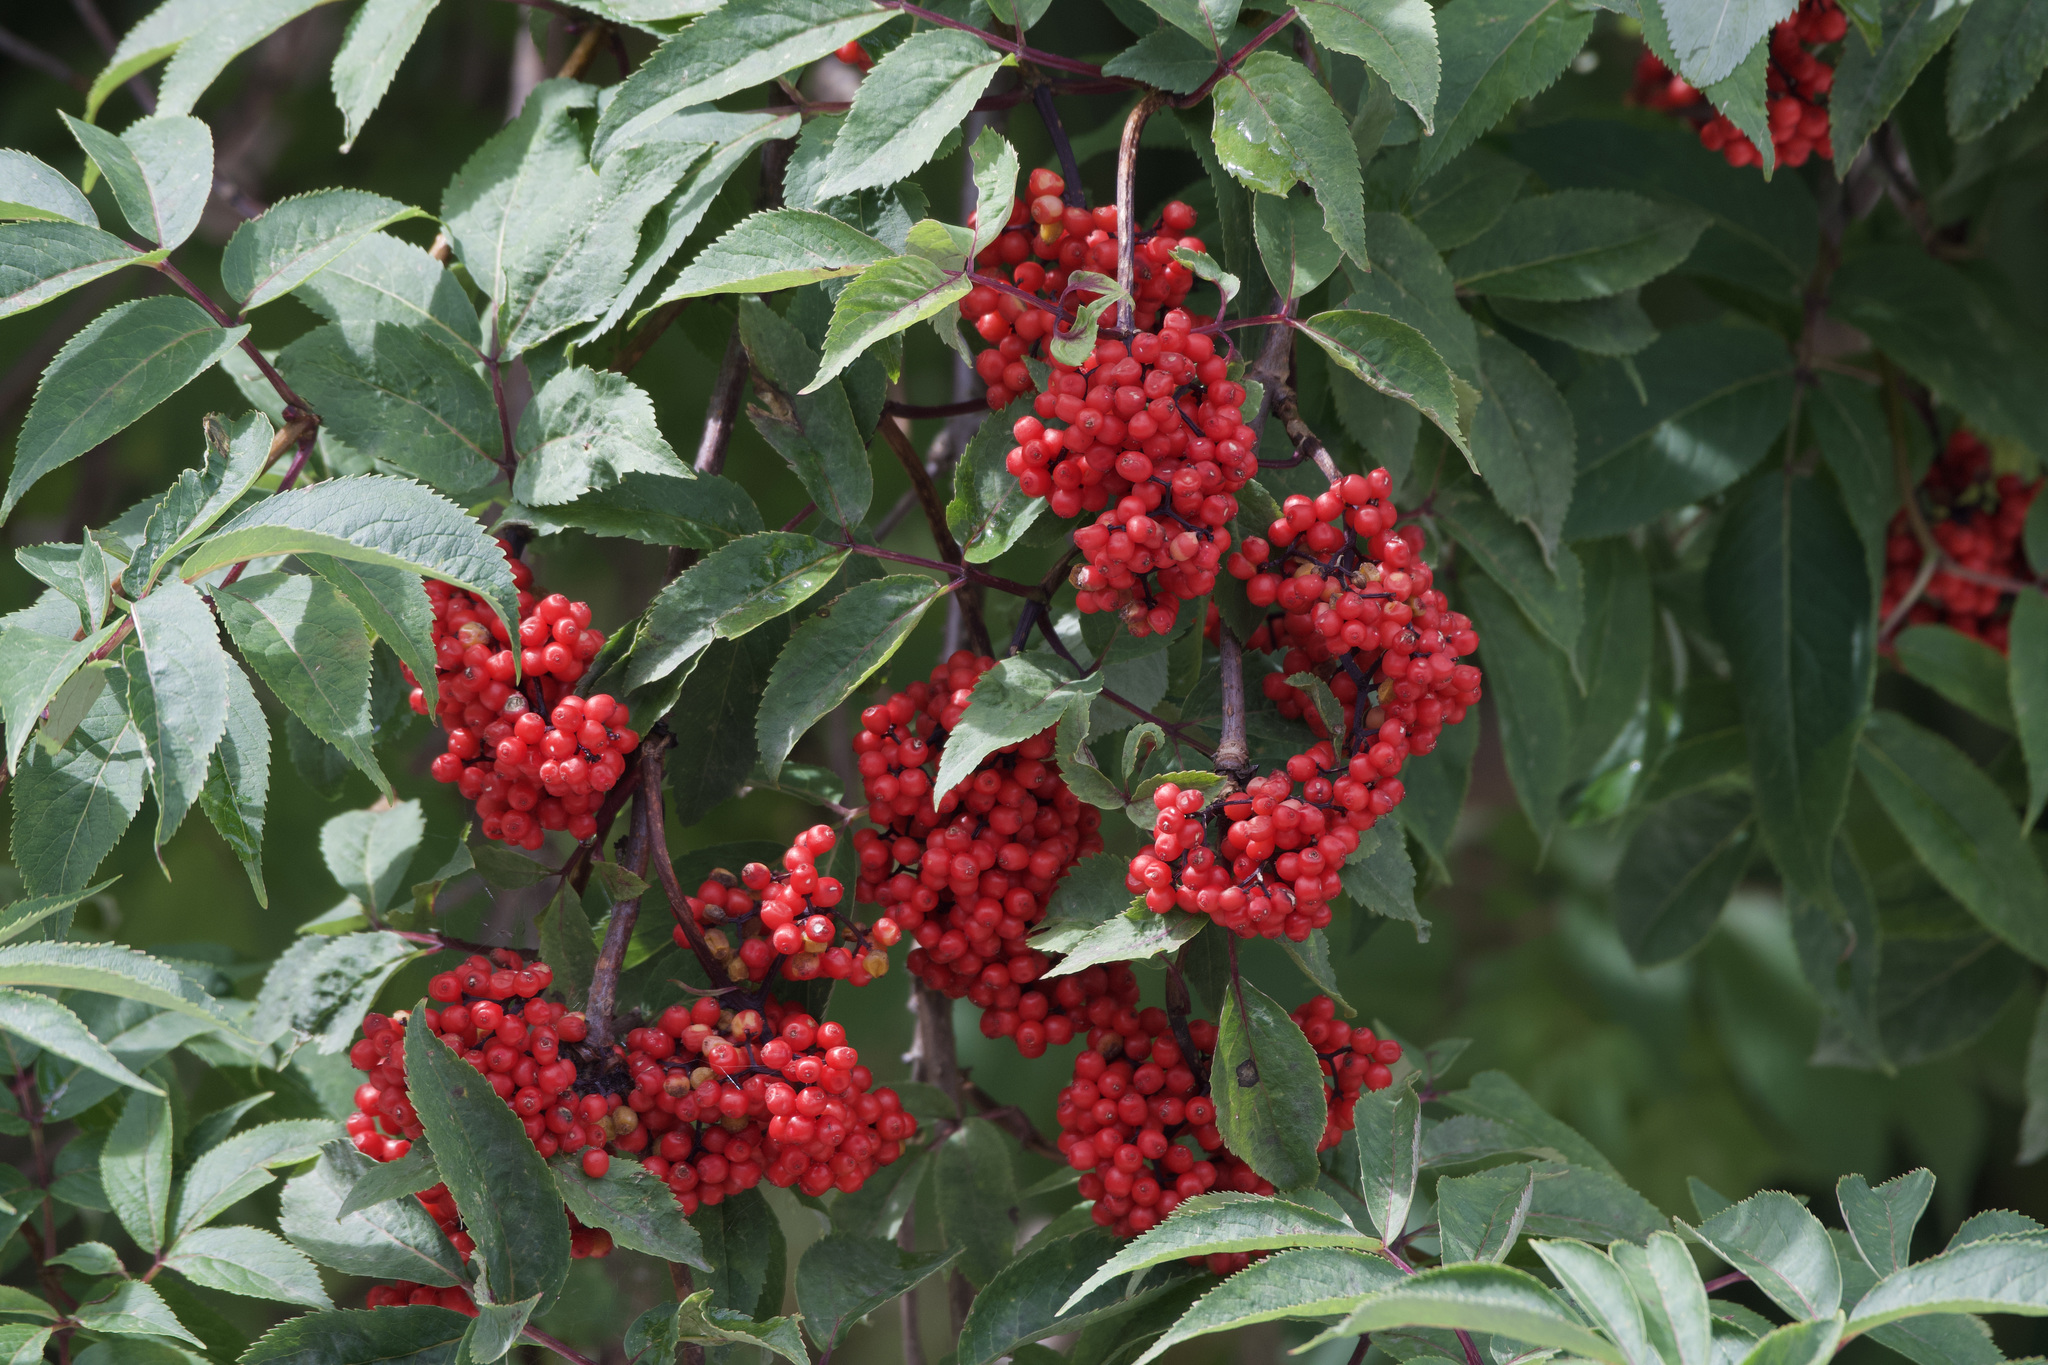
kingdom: Plantae
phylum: Tracheophyta
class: Magnoliopsida
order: Dipsacales
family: Viburnaceae
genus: Sambucus
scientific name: Sambucus racemosa
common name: Red-berried elder
